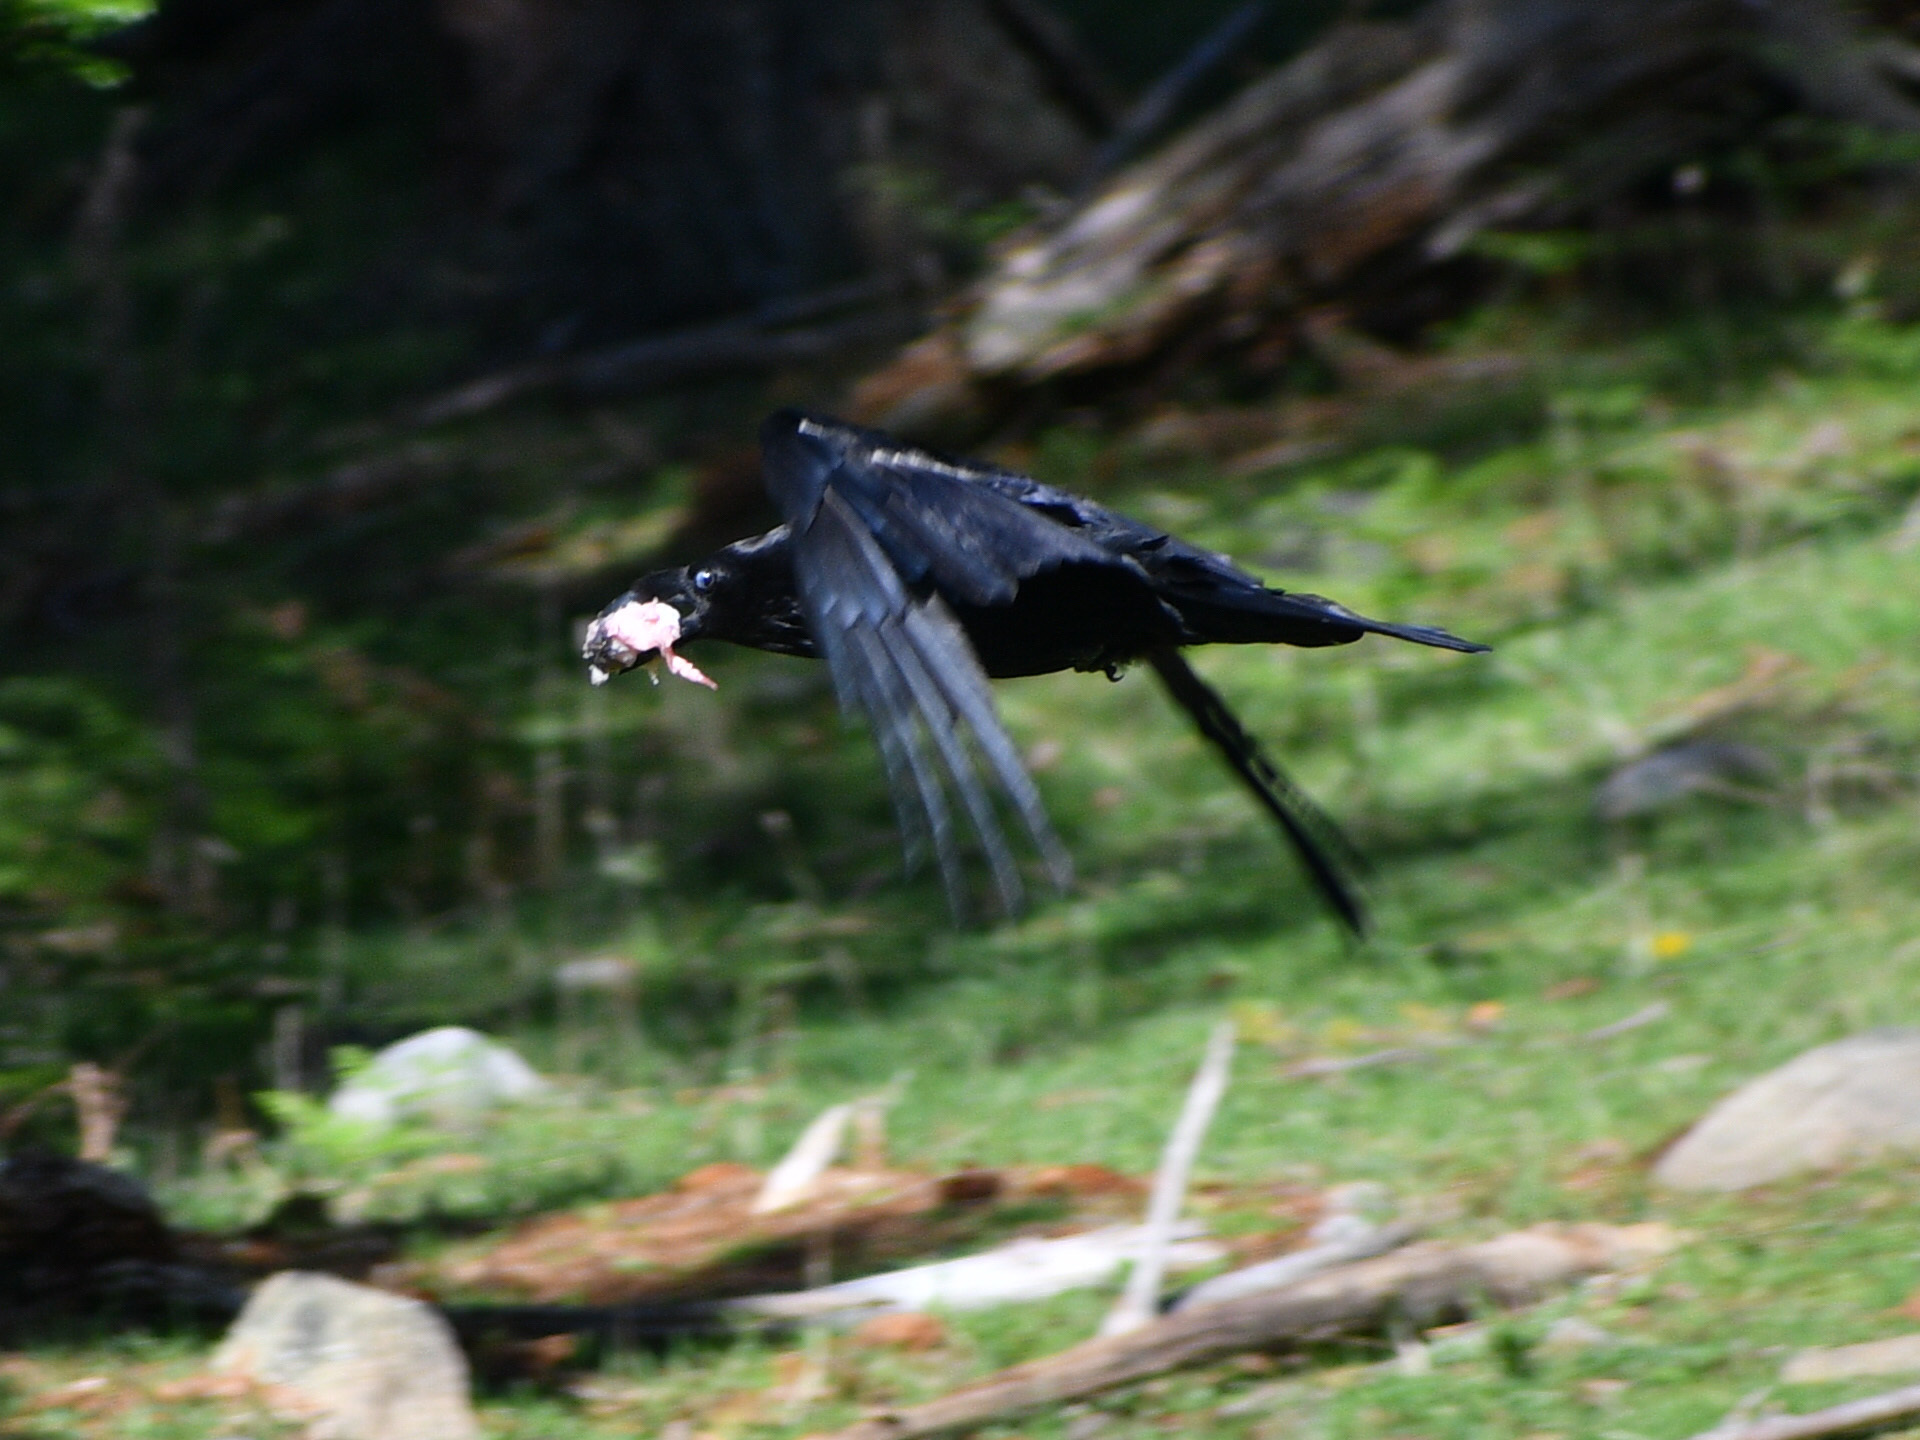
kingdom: Animalia
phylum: Chordata
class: Aves
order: Passeriformes
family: Corvidae
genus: Corvus
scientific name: Corvus corax
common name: Common raven
